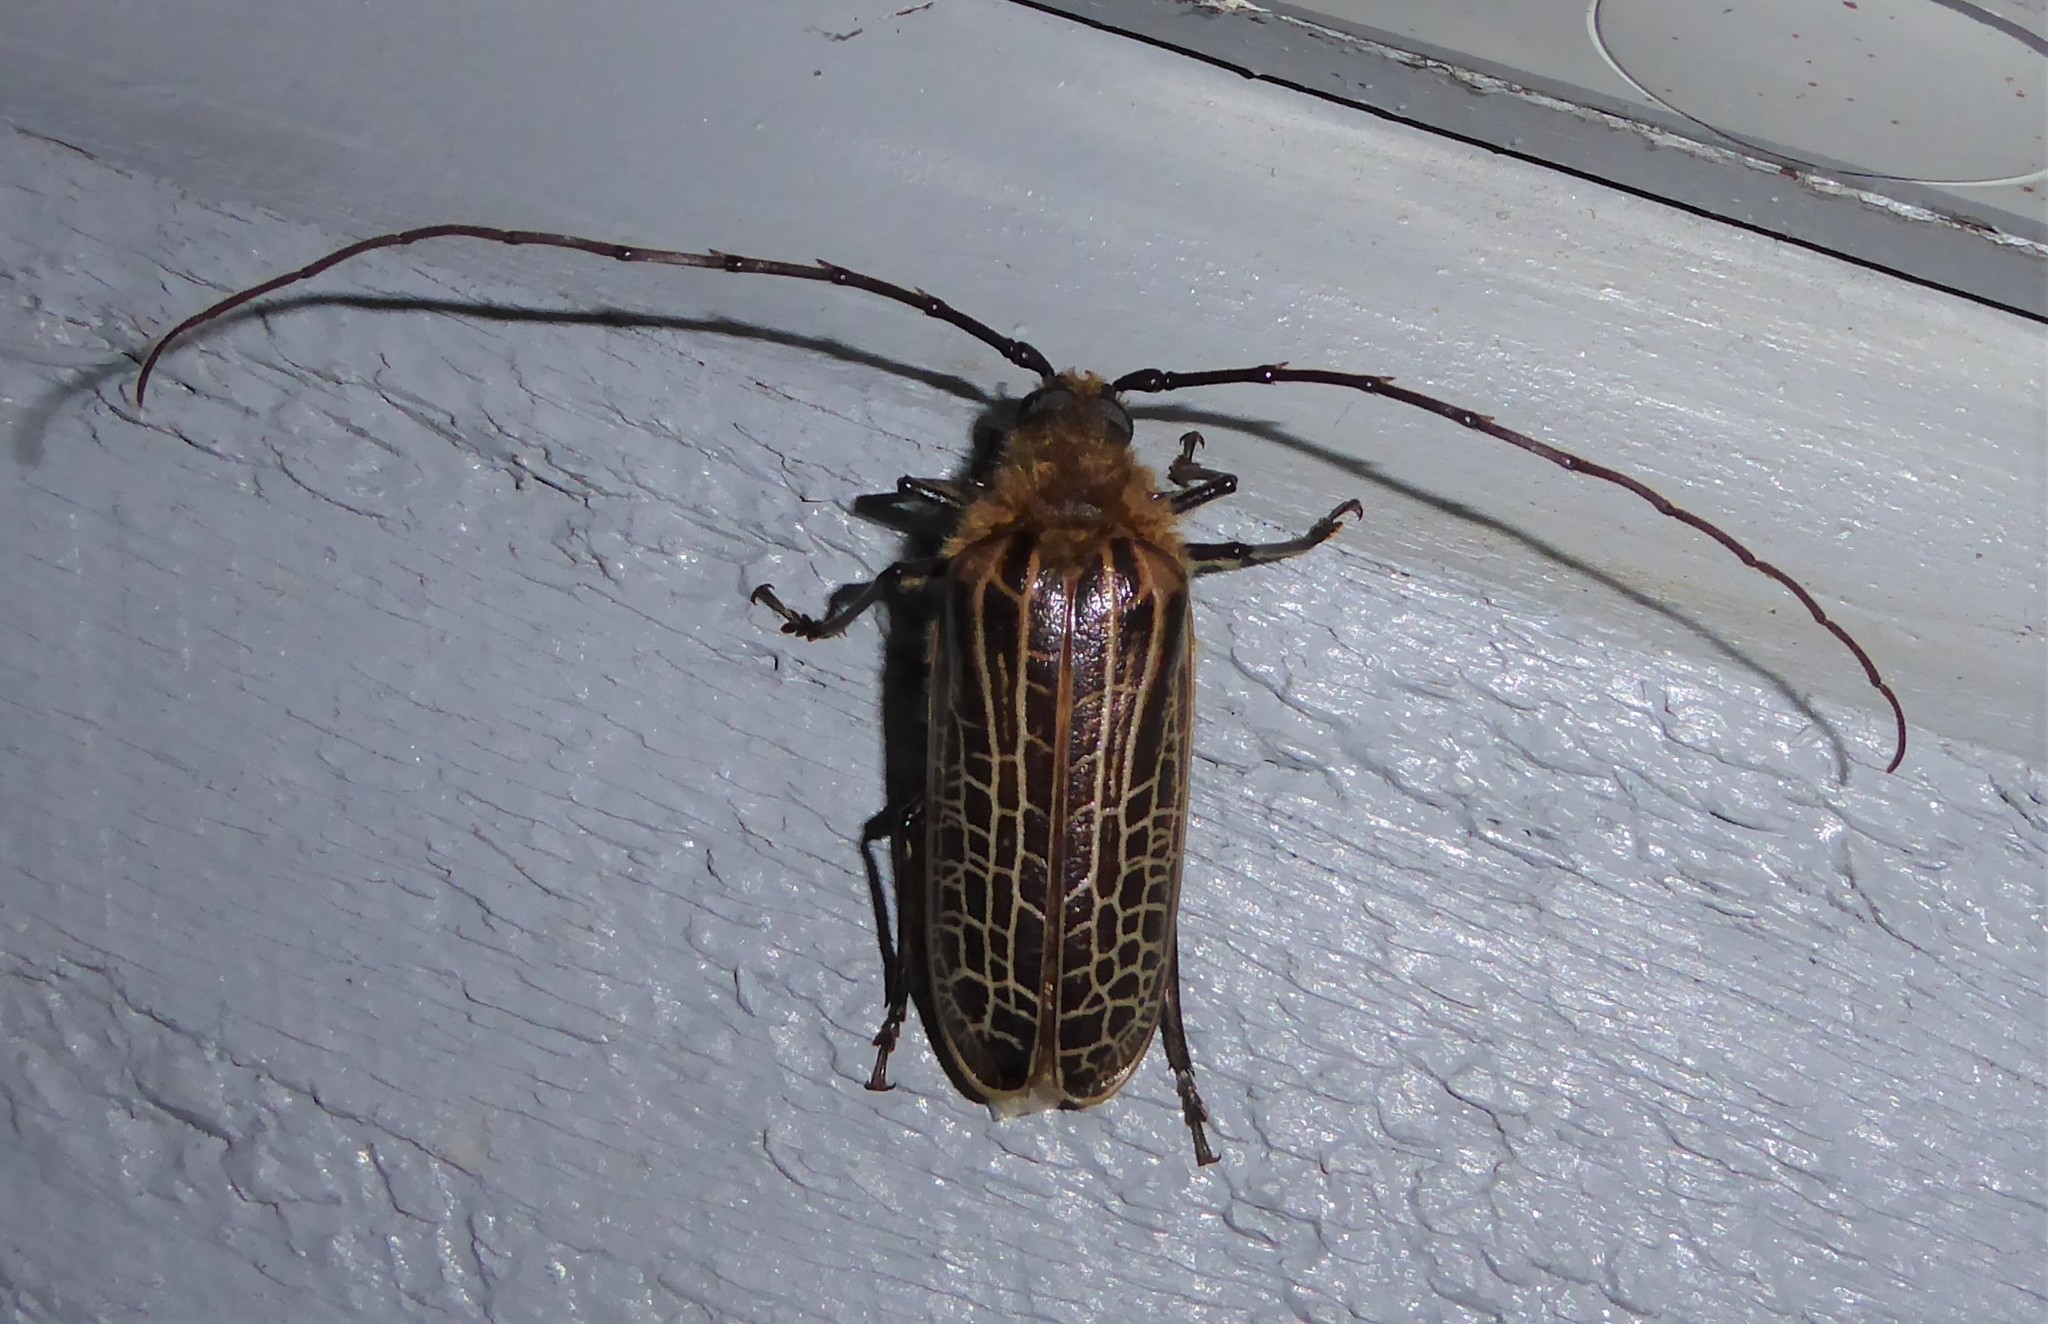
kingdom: Animalia
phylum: Arthropoda
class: Insecta
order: Coleoptera
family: Cerambycidae
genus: Prionoplus
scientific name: Prionoplus reticularis
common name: Huhu beetle
